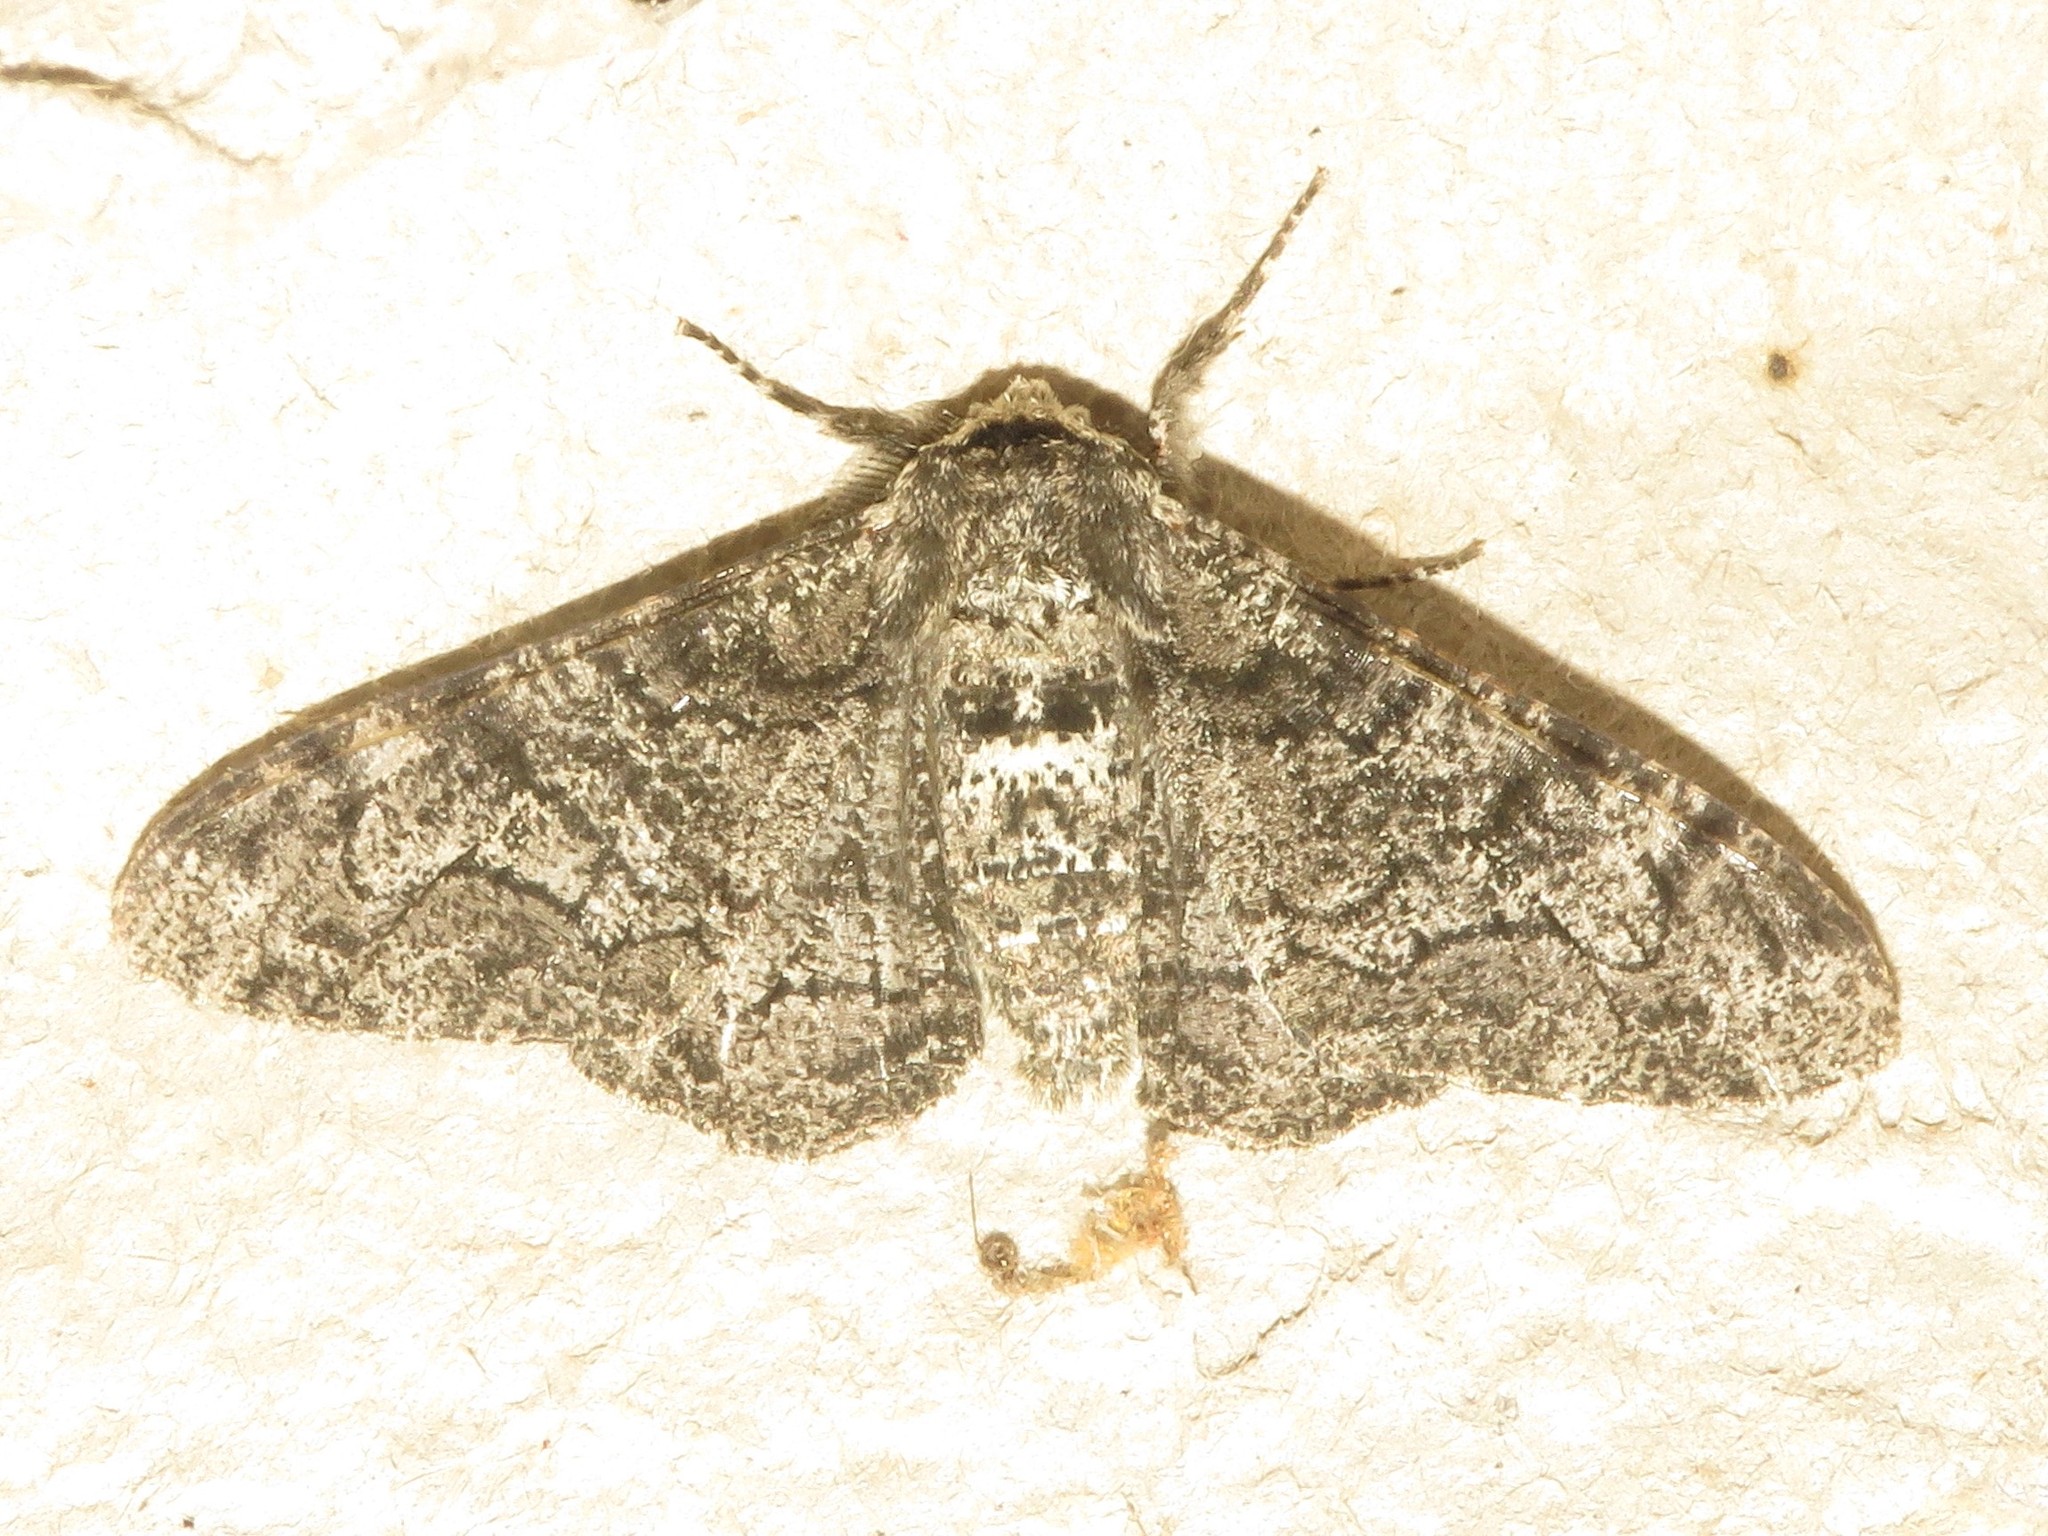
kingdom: Animalia
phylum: Arthropoda
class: Insecta
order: Lepidoptera
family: Geometridae
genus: Biston
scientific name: Biston betularia
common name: Peppered moth
